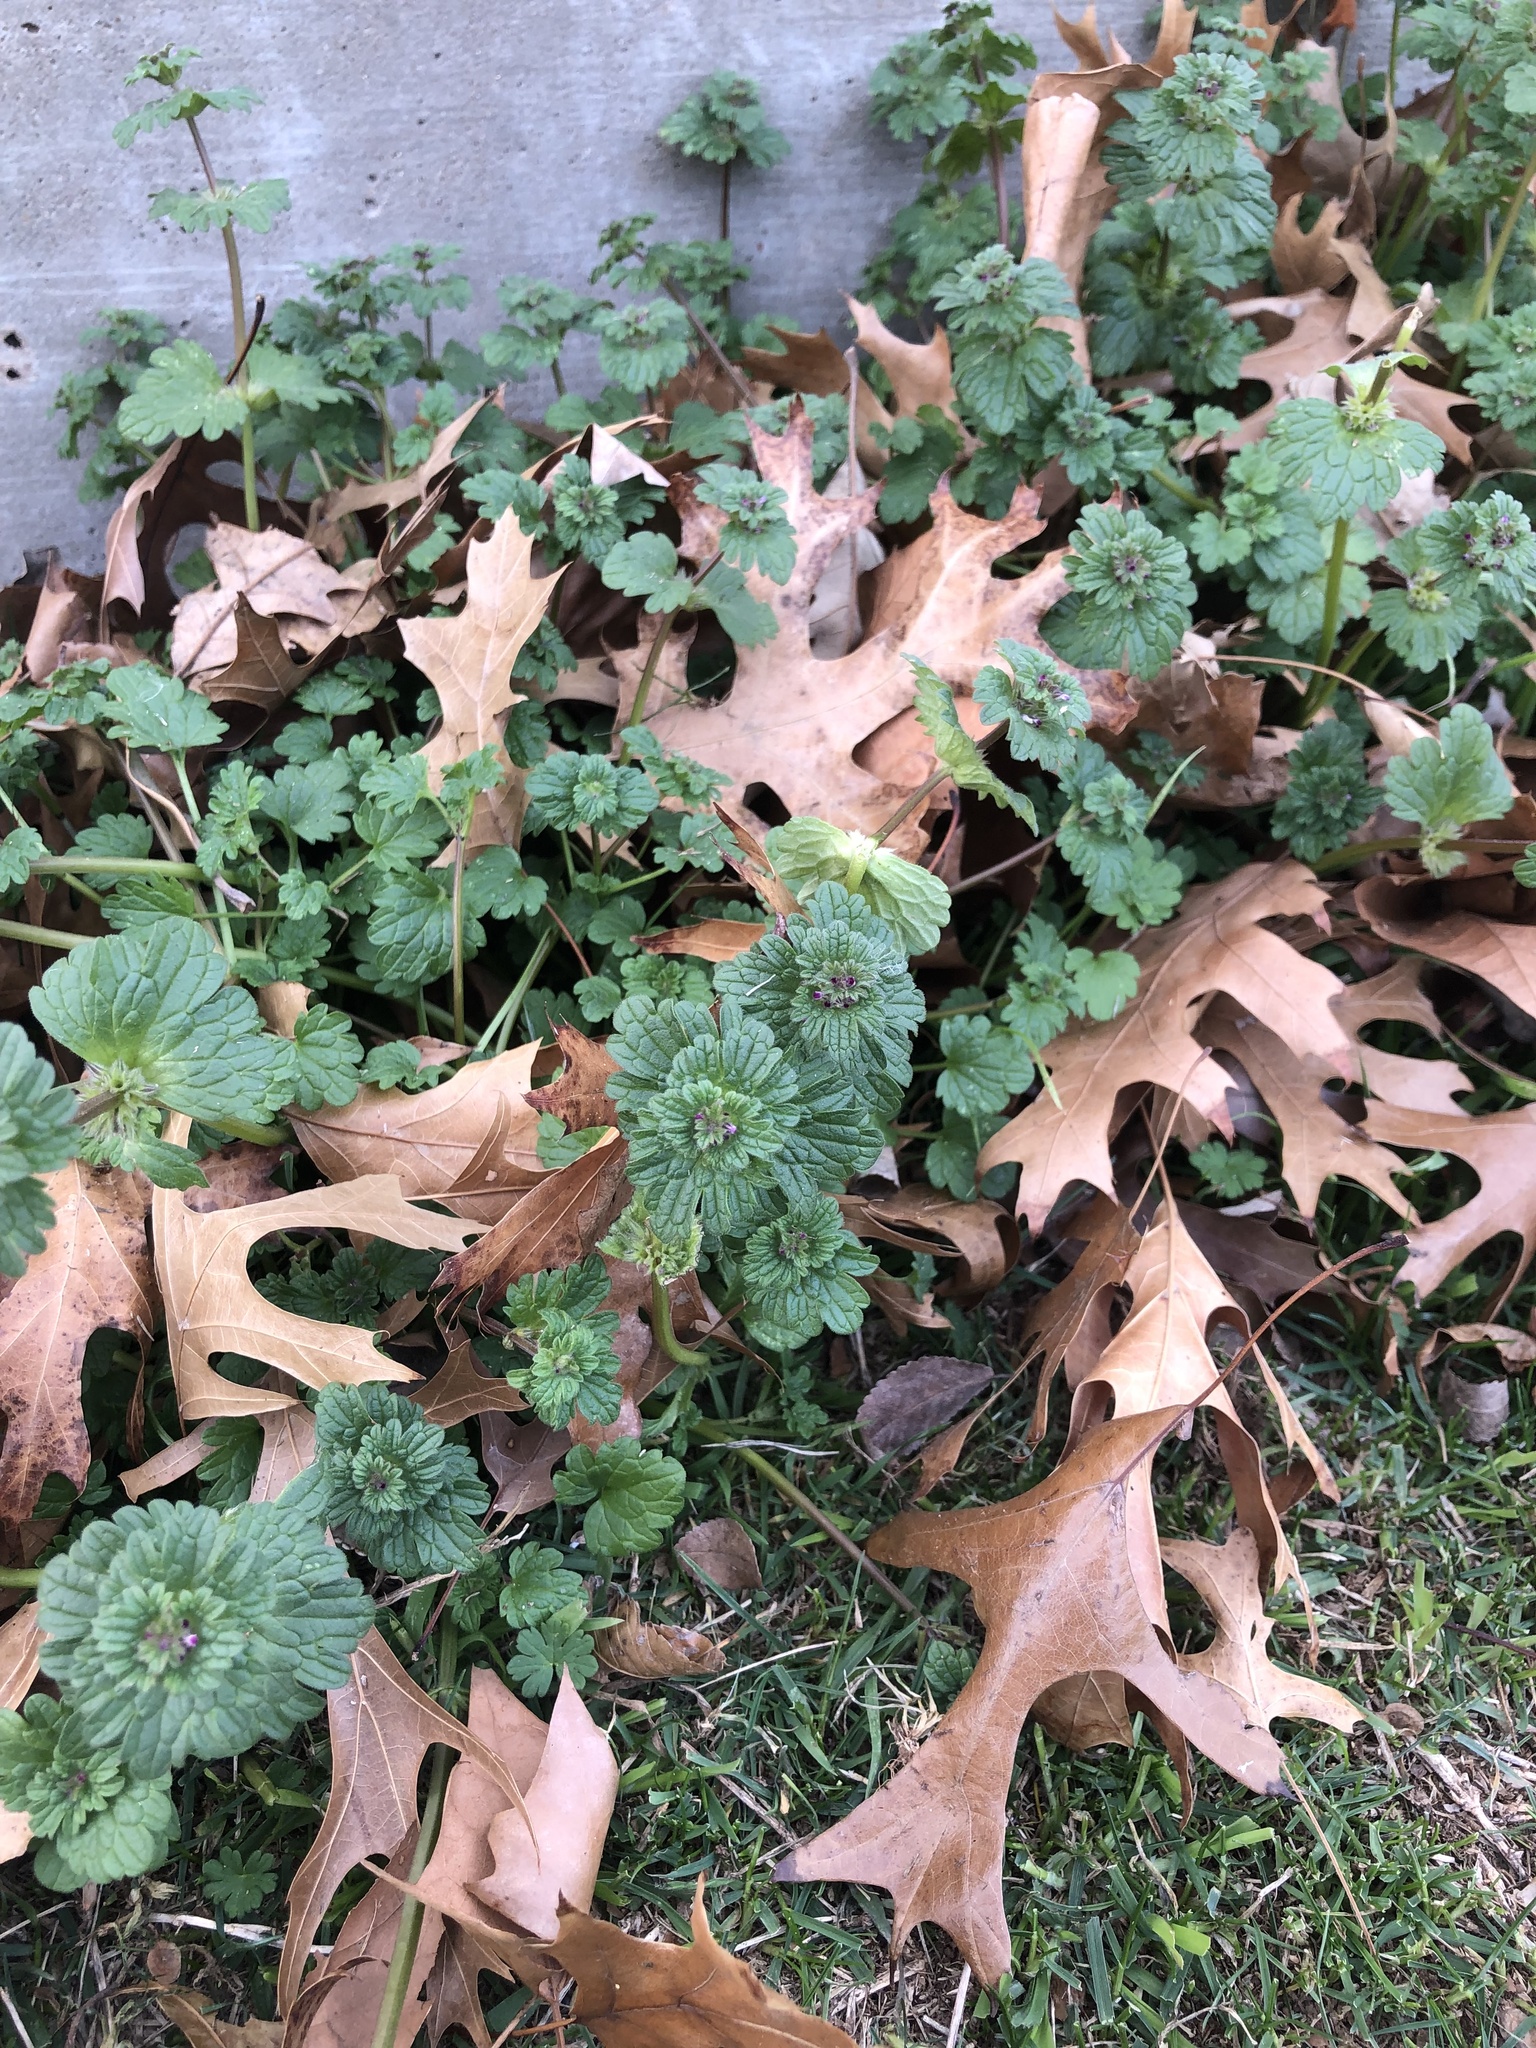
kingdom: Plantae
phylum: Tracheophyta
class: Magnoliopsida
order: Lamiales
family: Lamiaceae
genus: Lamium
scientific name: Lamium amplexicaule
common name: Henbit dead-nettle
